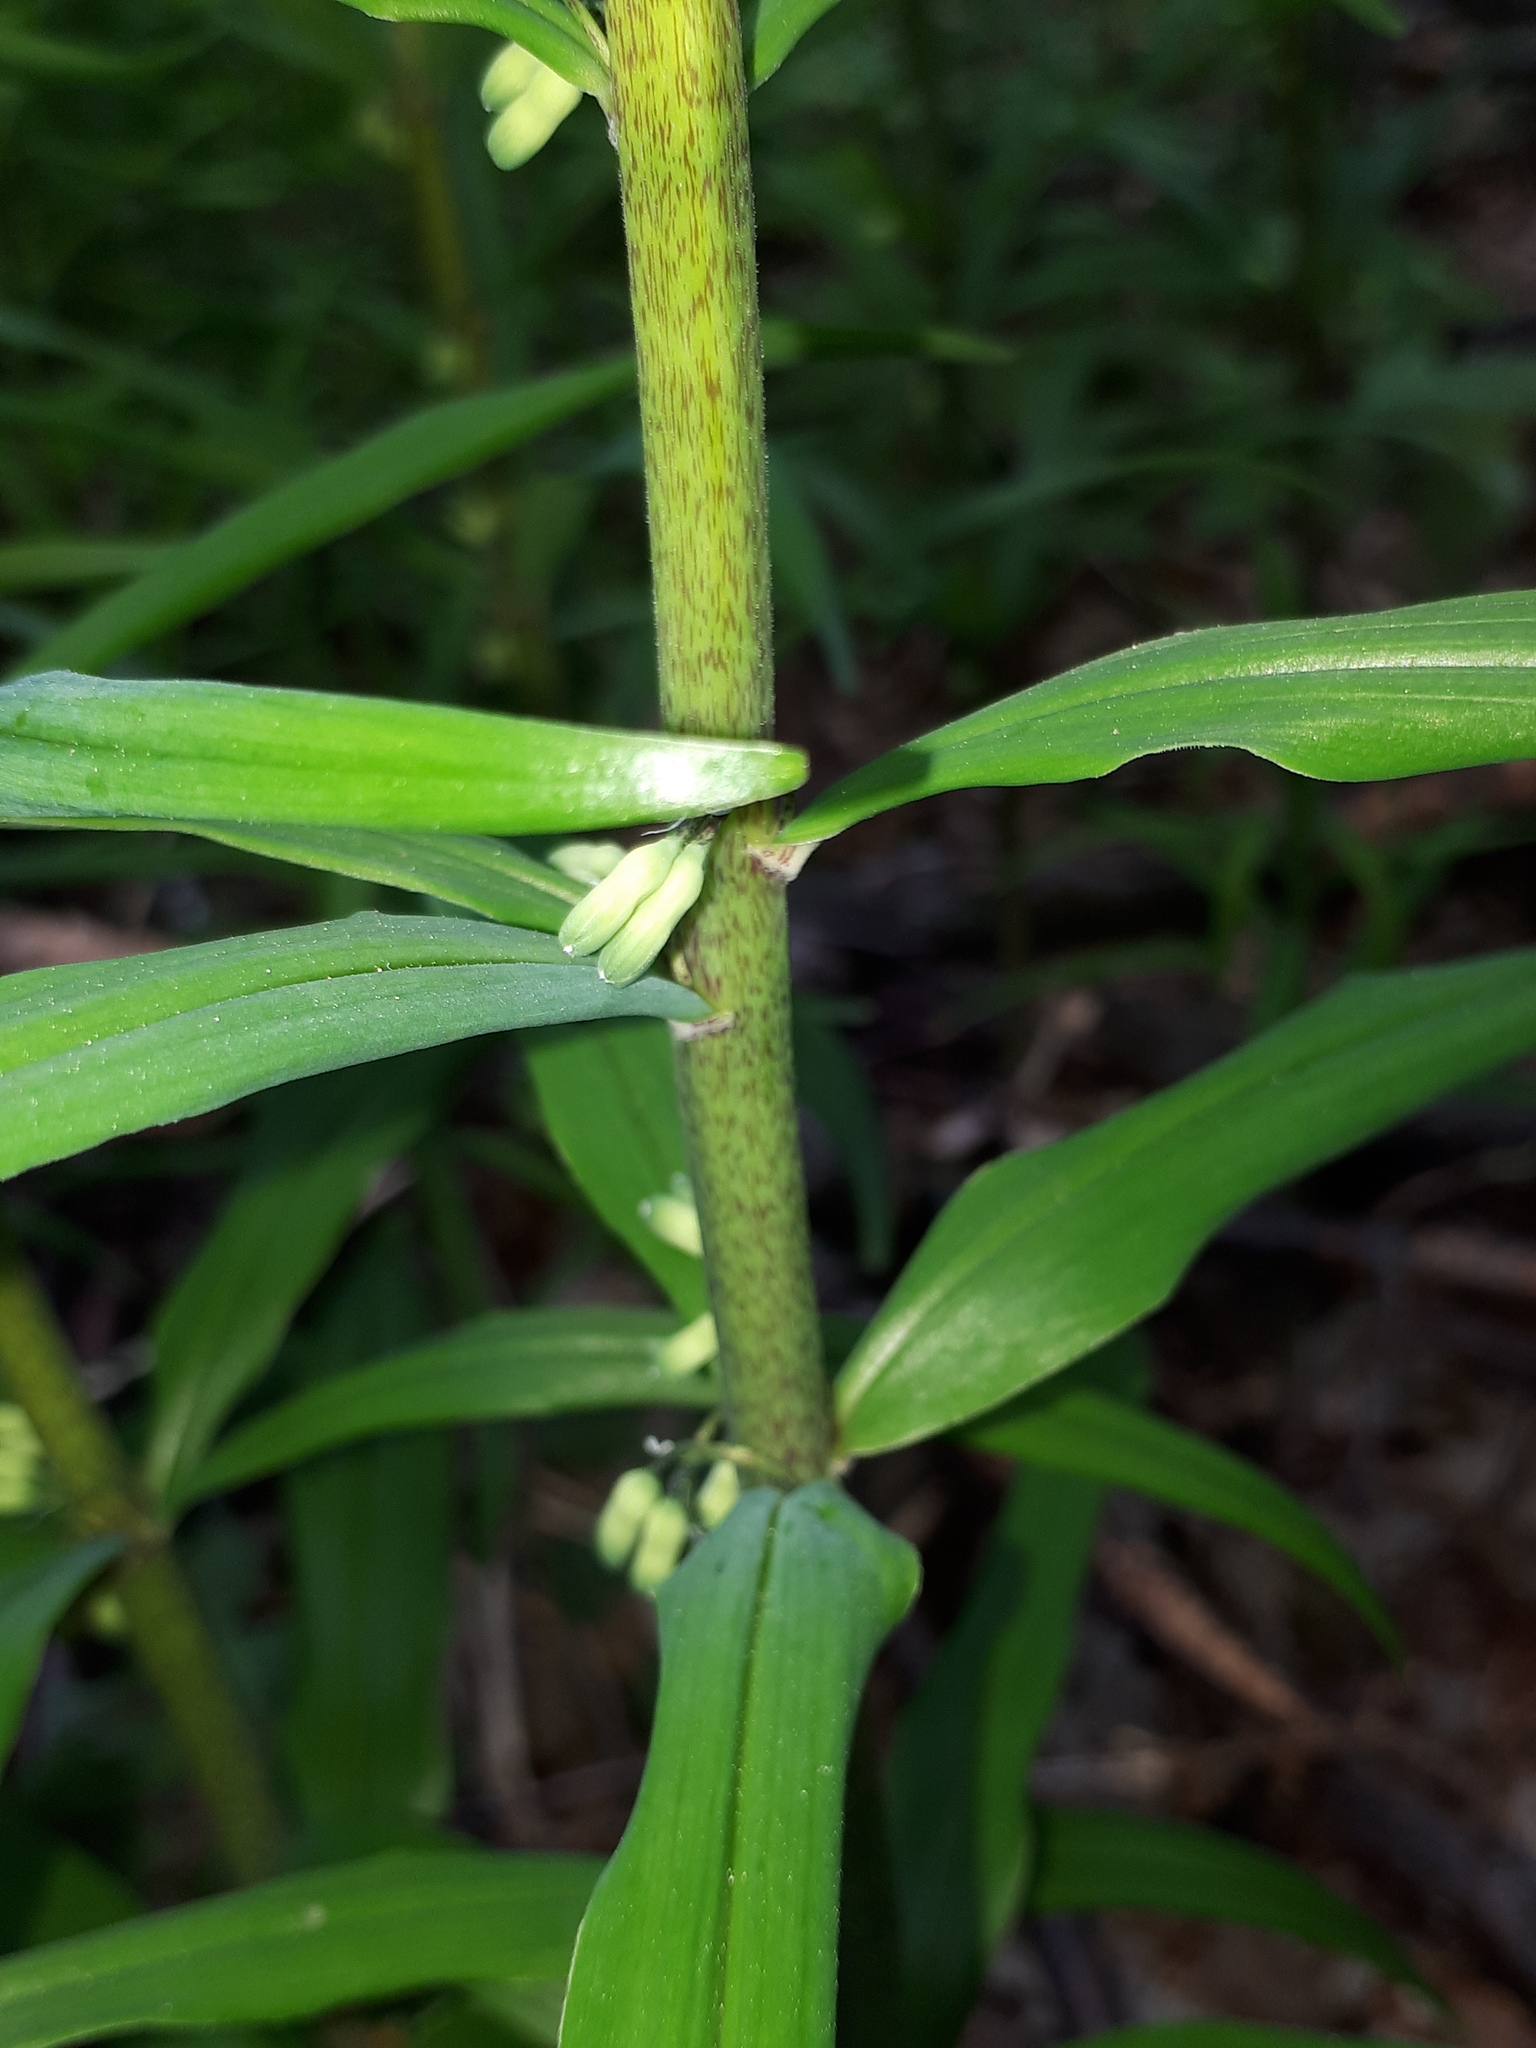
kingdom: Plantae
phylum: Tracheophyta
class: Liliopsida
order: Asparagales
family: Asparagaceae
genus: Polygonatum
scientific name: Polygonatum verticillatum
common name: Whorled solomon's-seal
